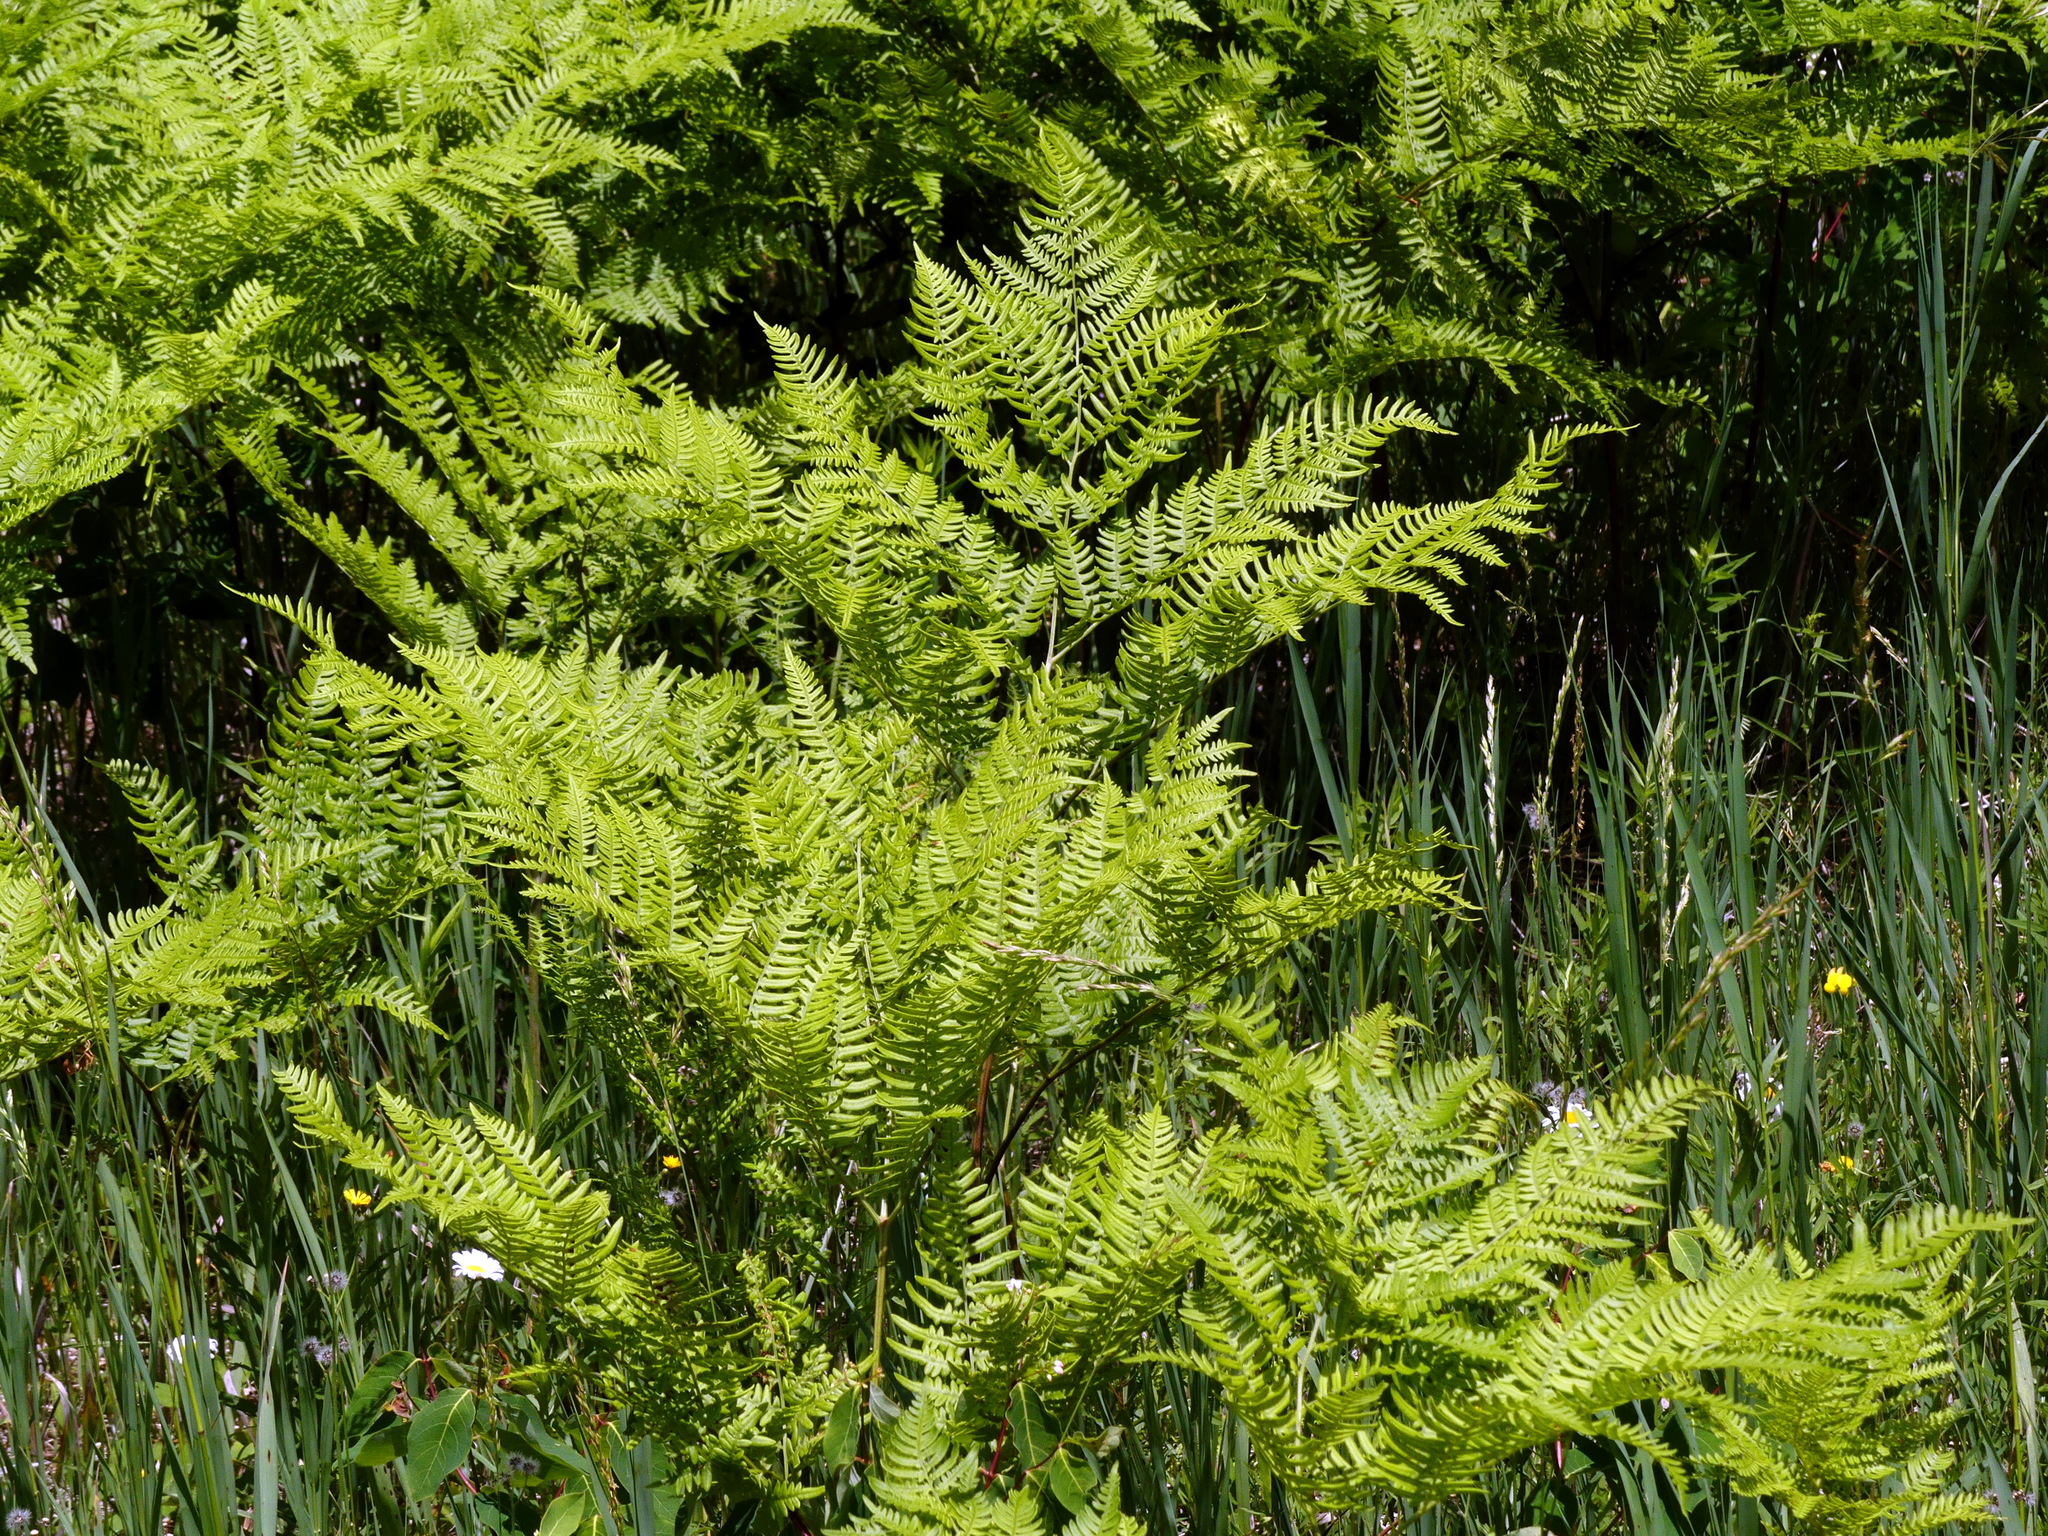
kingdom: Plantae
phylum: Tracheophyta
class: Polypodiopsida
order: Polypodiales
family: Dennstaedtiaceae
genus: Pteridium
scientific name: Pteridium aquilinum
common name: Bracken
